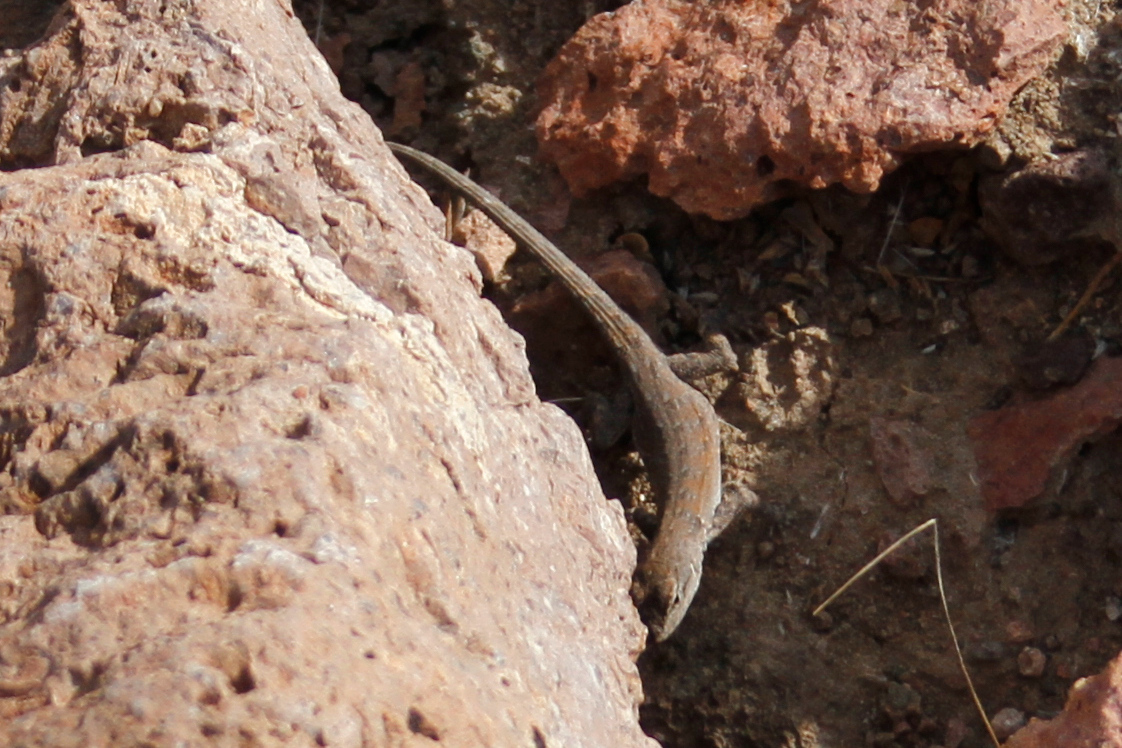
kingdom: Animalia
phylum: Chordata
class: Squamata
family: Phrynosomatidae
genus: Urosaurus
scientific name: Urosaurus nigricauda
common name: Baja california brush lizard
